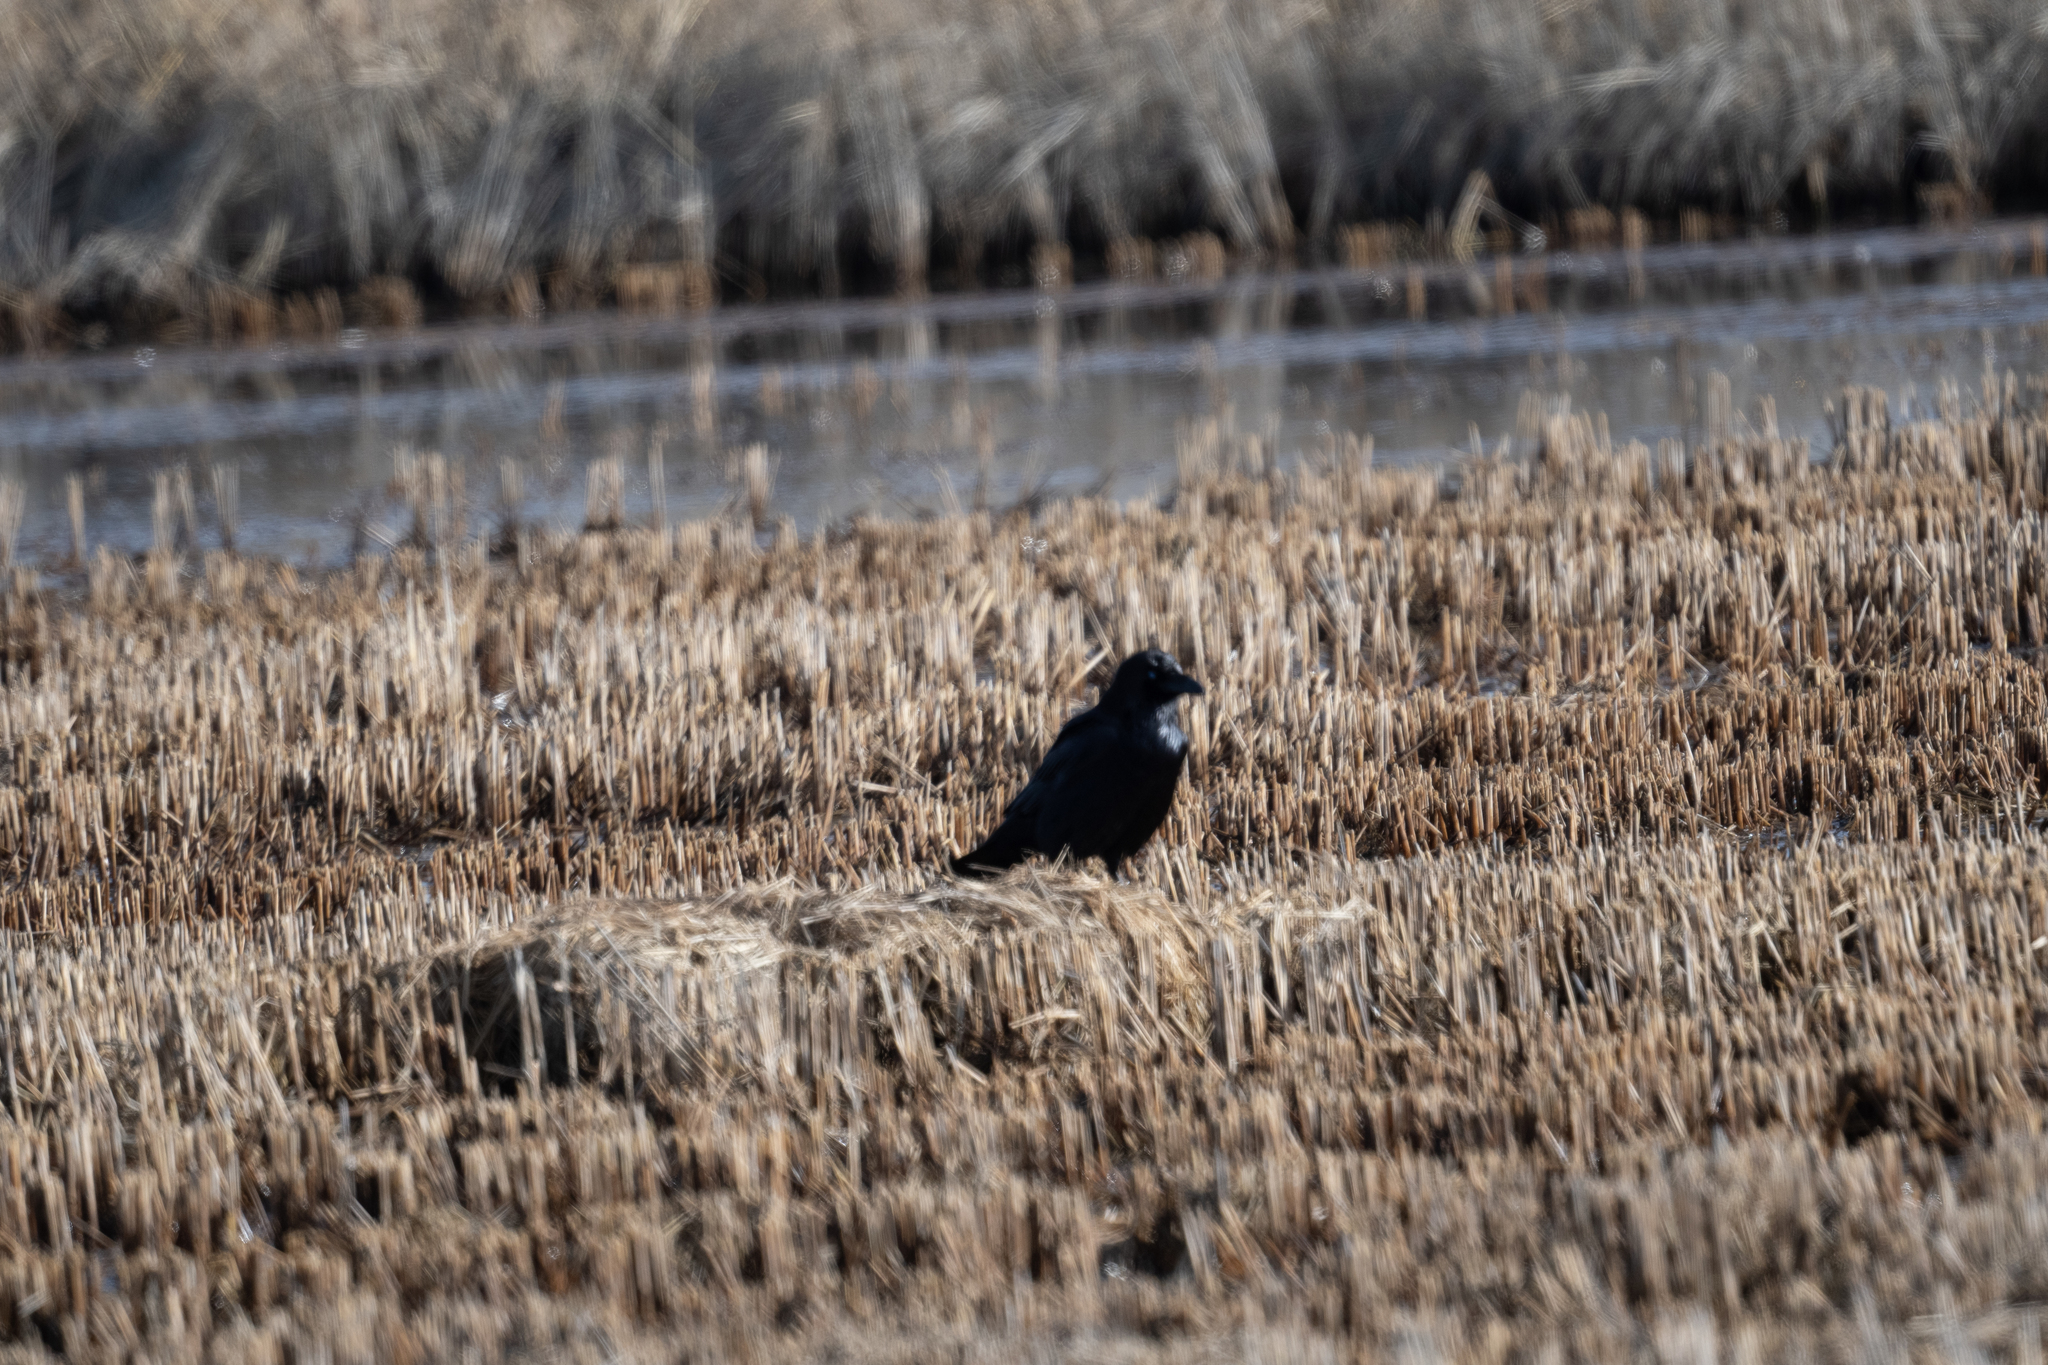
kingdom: Animalia
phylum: Chordata
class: Aves
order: Passeriformes
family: Corvidae
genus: Corvus
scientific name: Corvus corax
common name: Common raven
